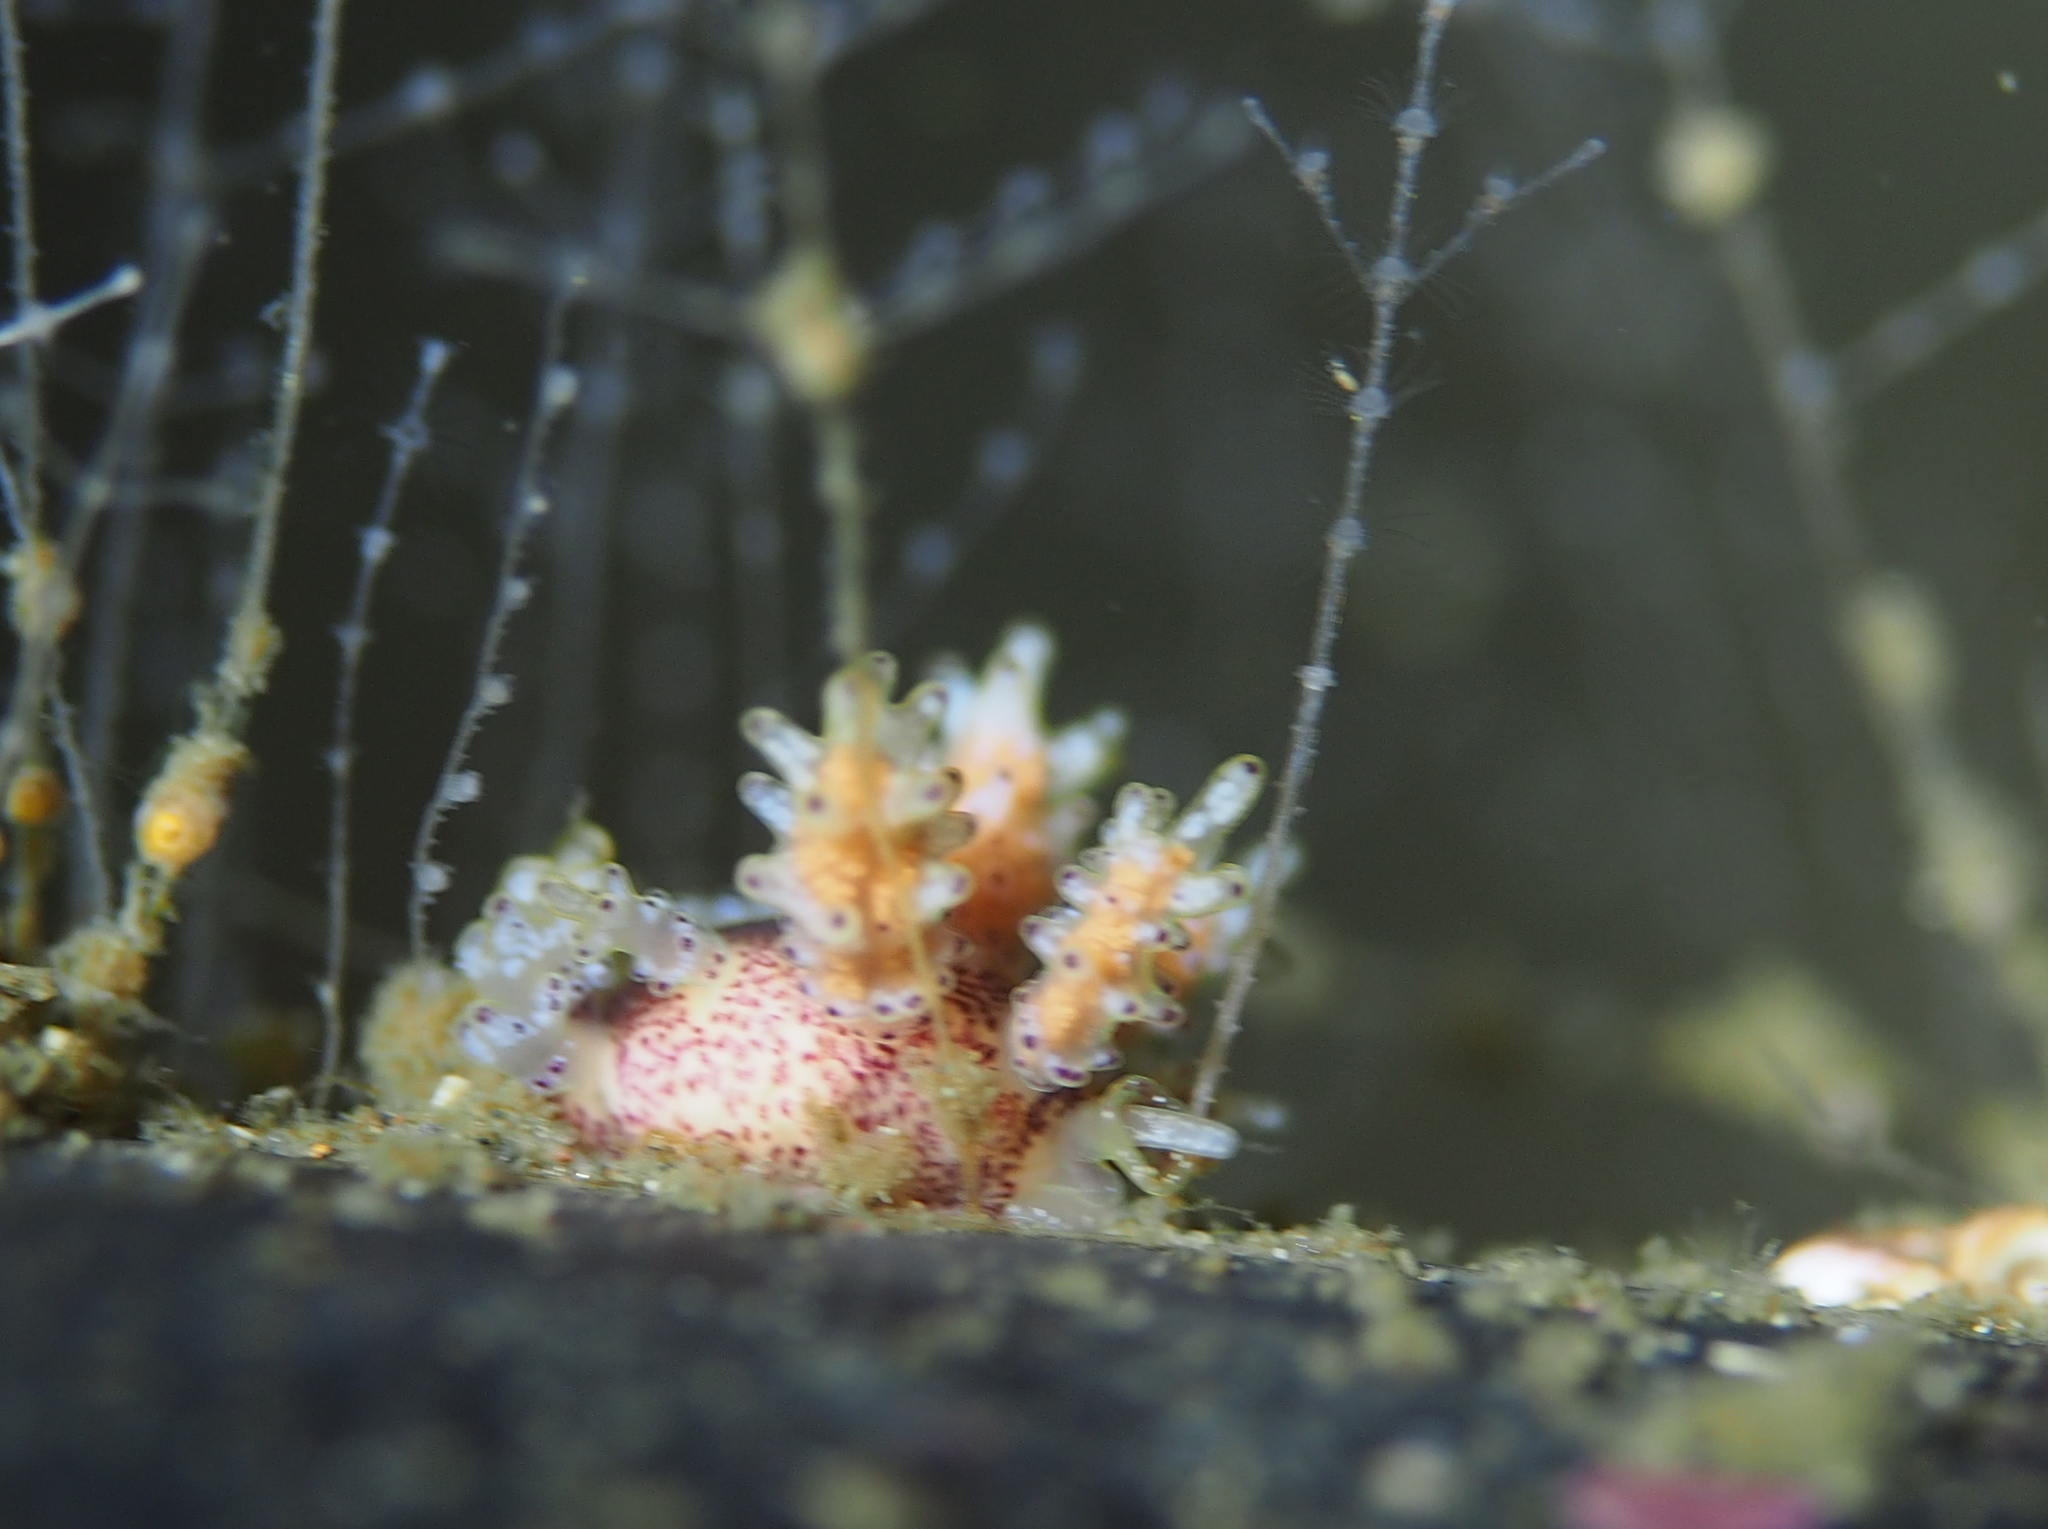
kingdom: Animalia
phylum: Mollusca
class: Gastropoda
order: Nudibranchia
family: Dotidae
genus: Doto
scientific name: Doto maculata
